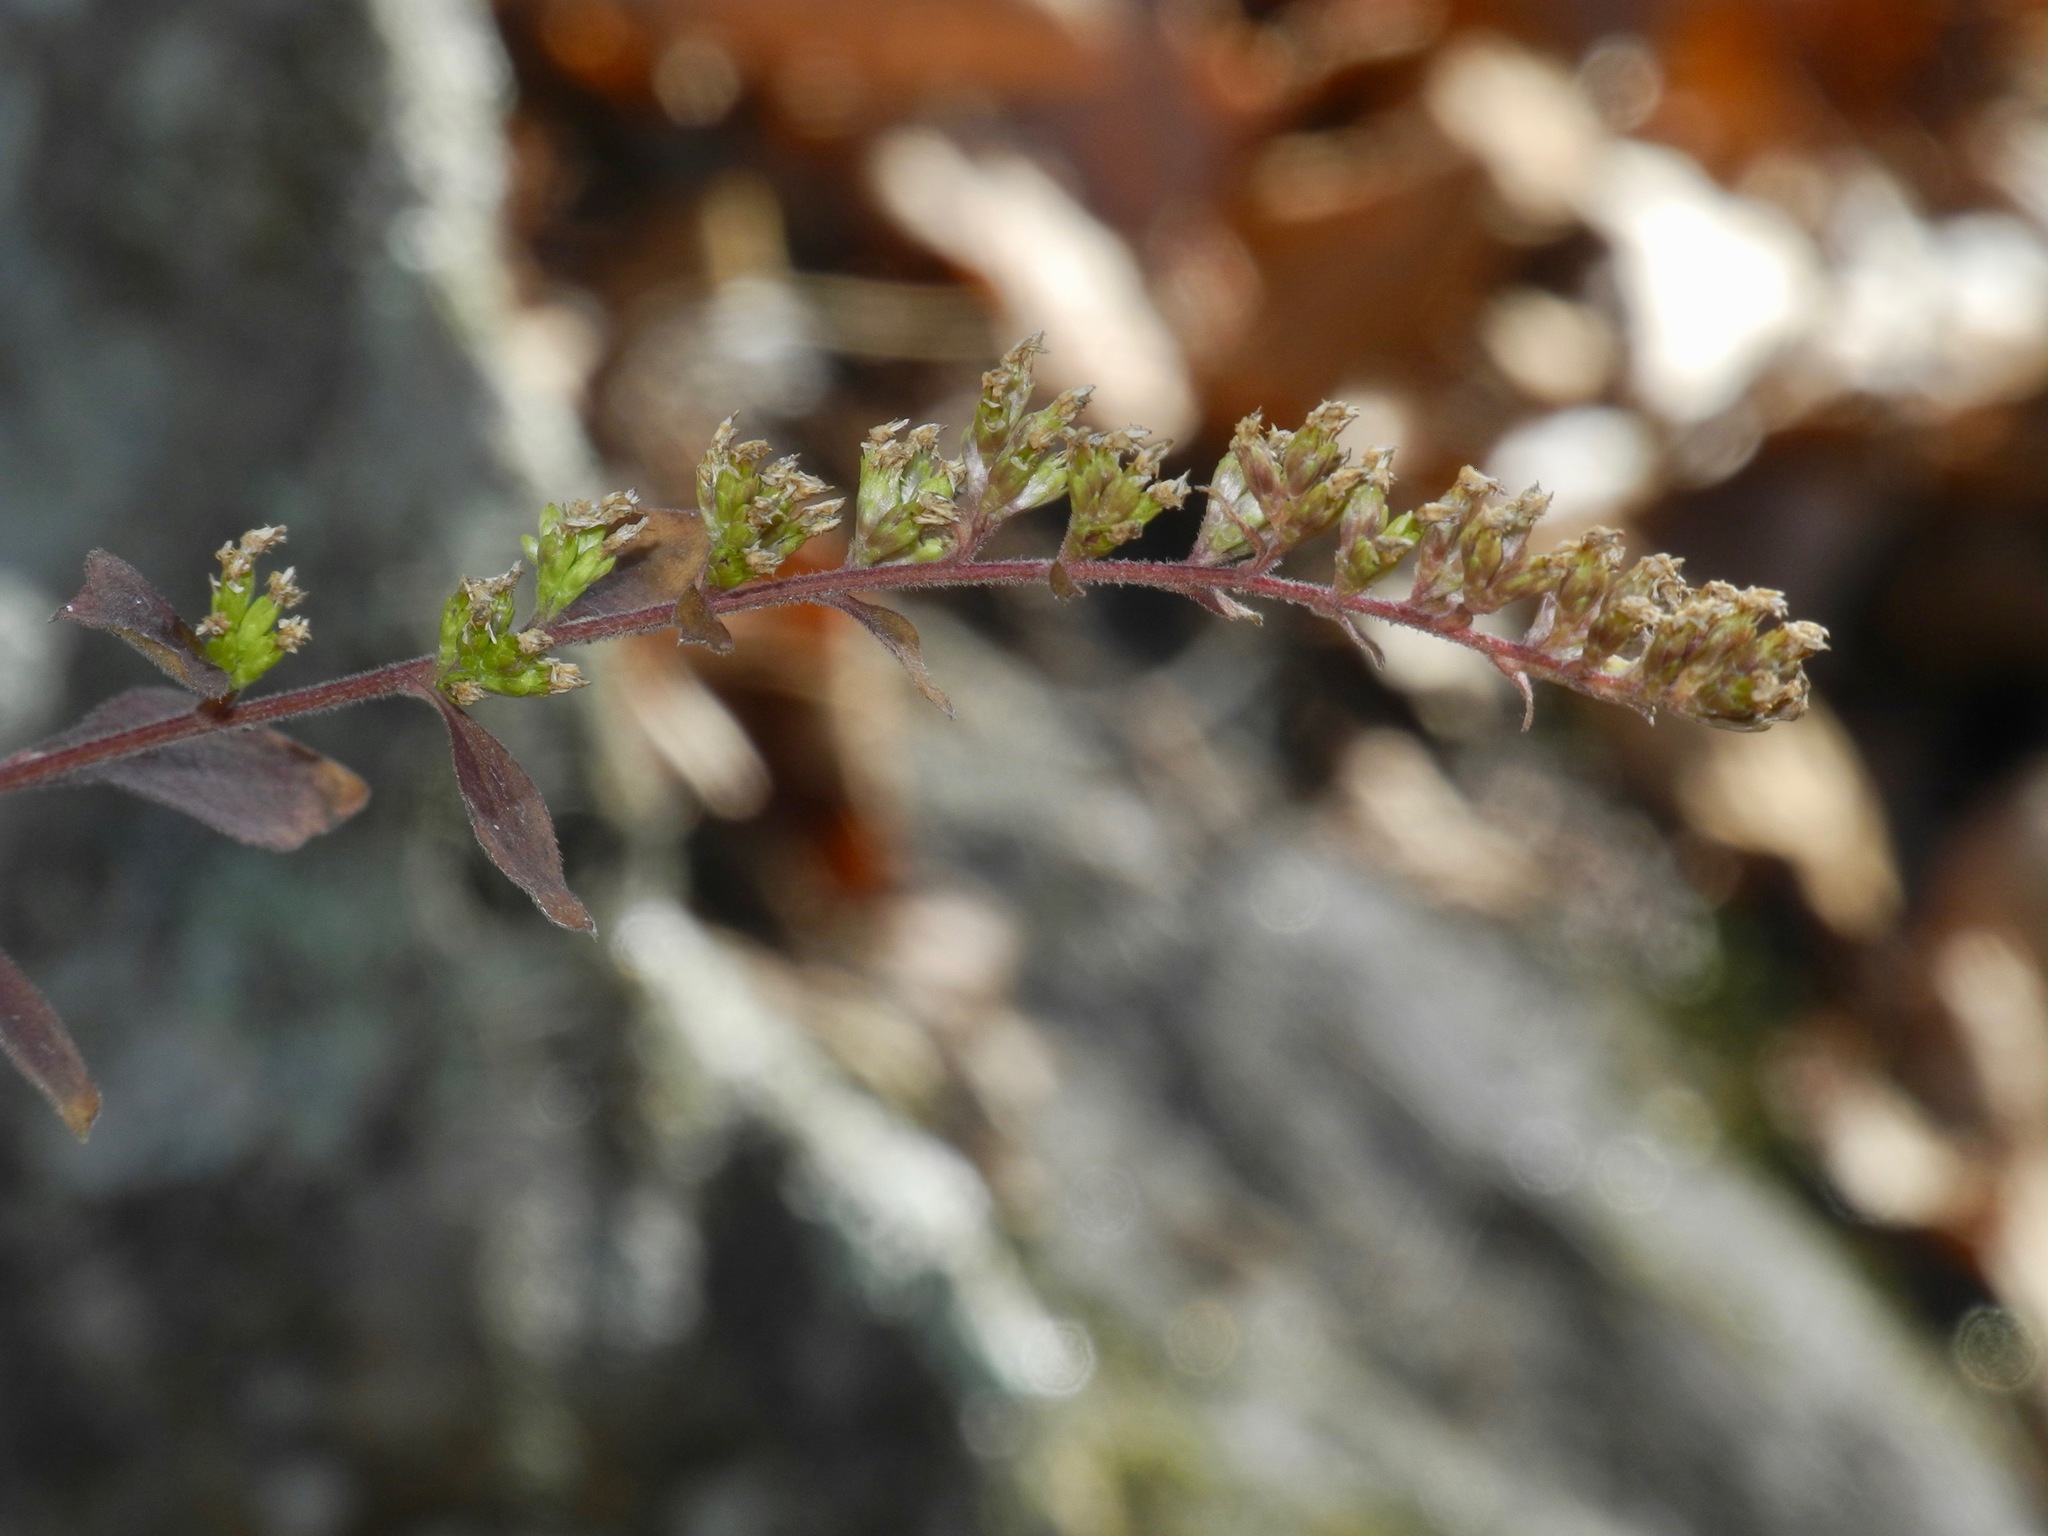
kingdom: Plantae
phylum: Tracheophyta
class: Magnoliopsida
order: Asterales
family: Asteraceae
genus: Solidago
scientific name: Solidago sphacelata
